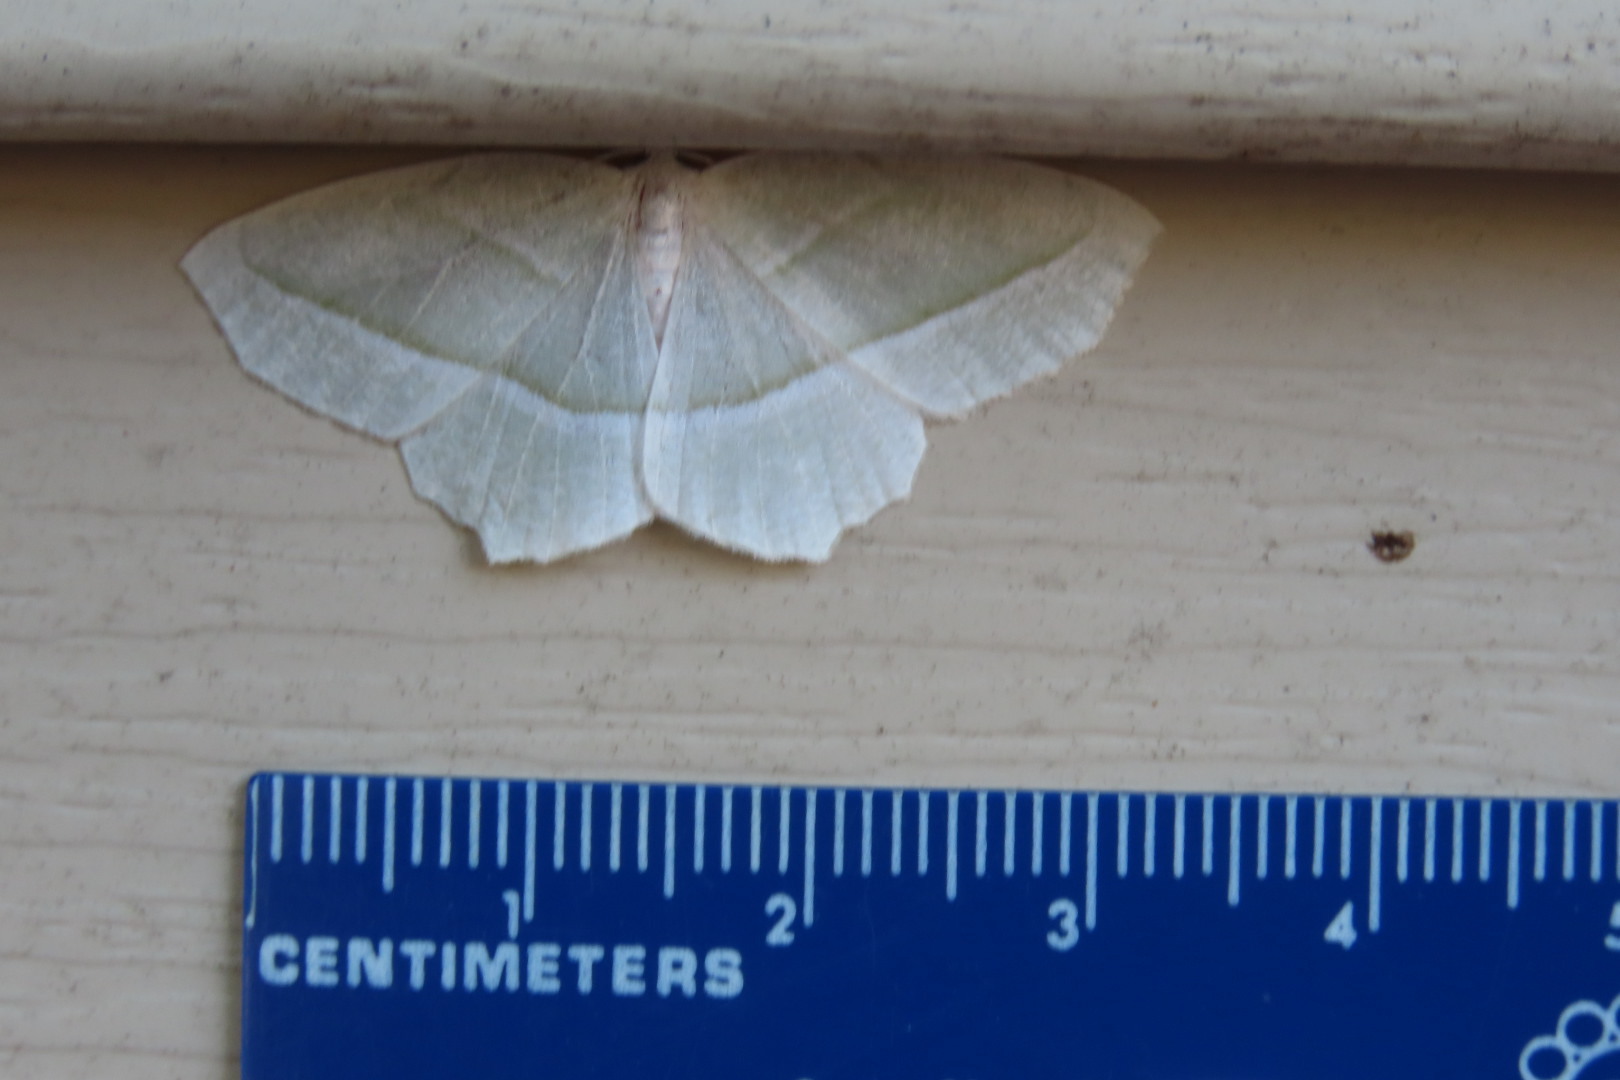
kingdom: Animalia
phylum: Arthropoda
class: Insecta
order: Lepidoptera
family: Geometridae
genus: Campaea
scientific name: Campaea perlata
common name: Fringed looper
